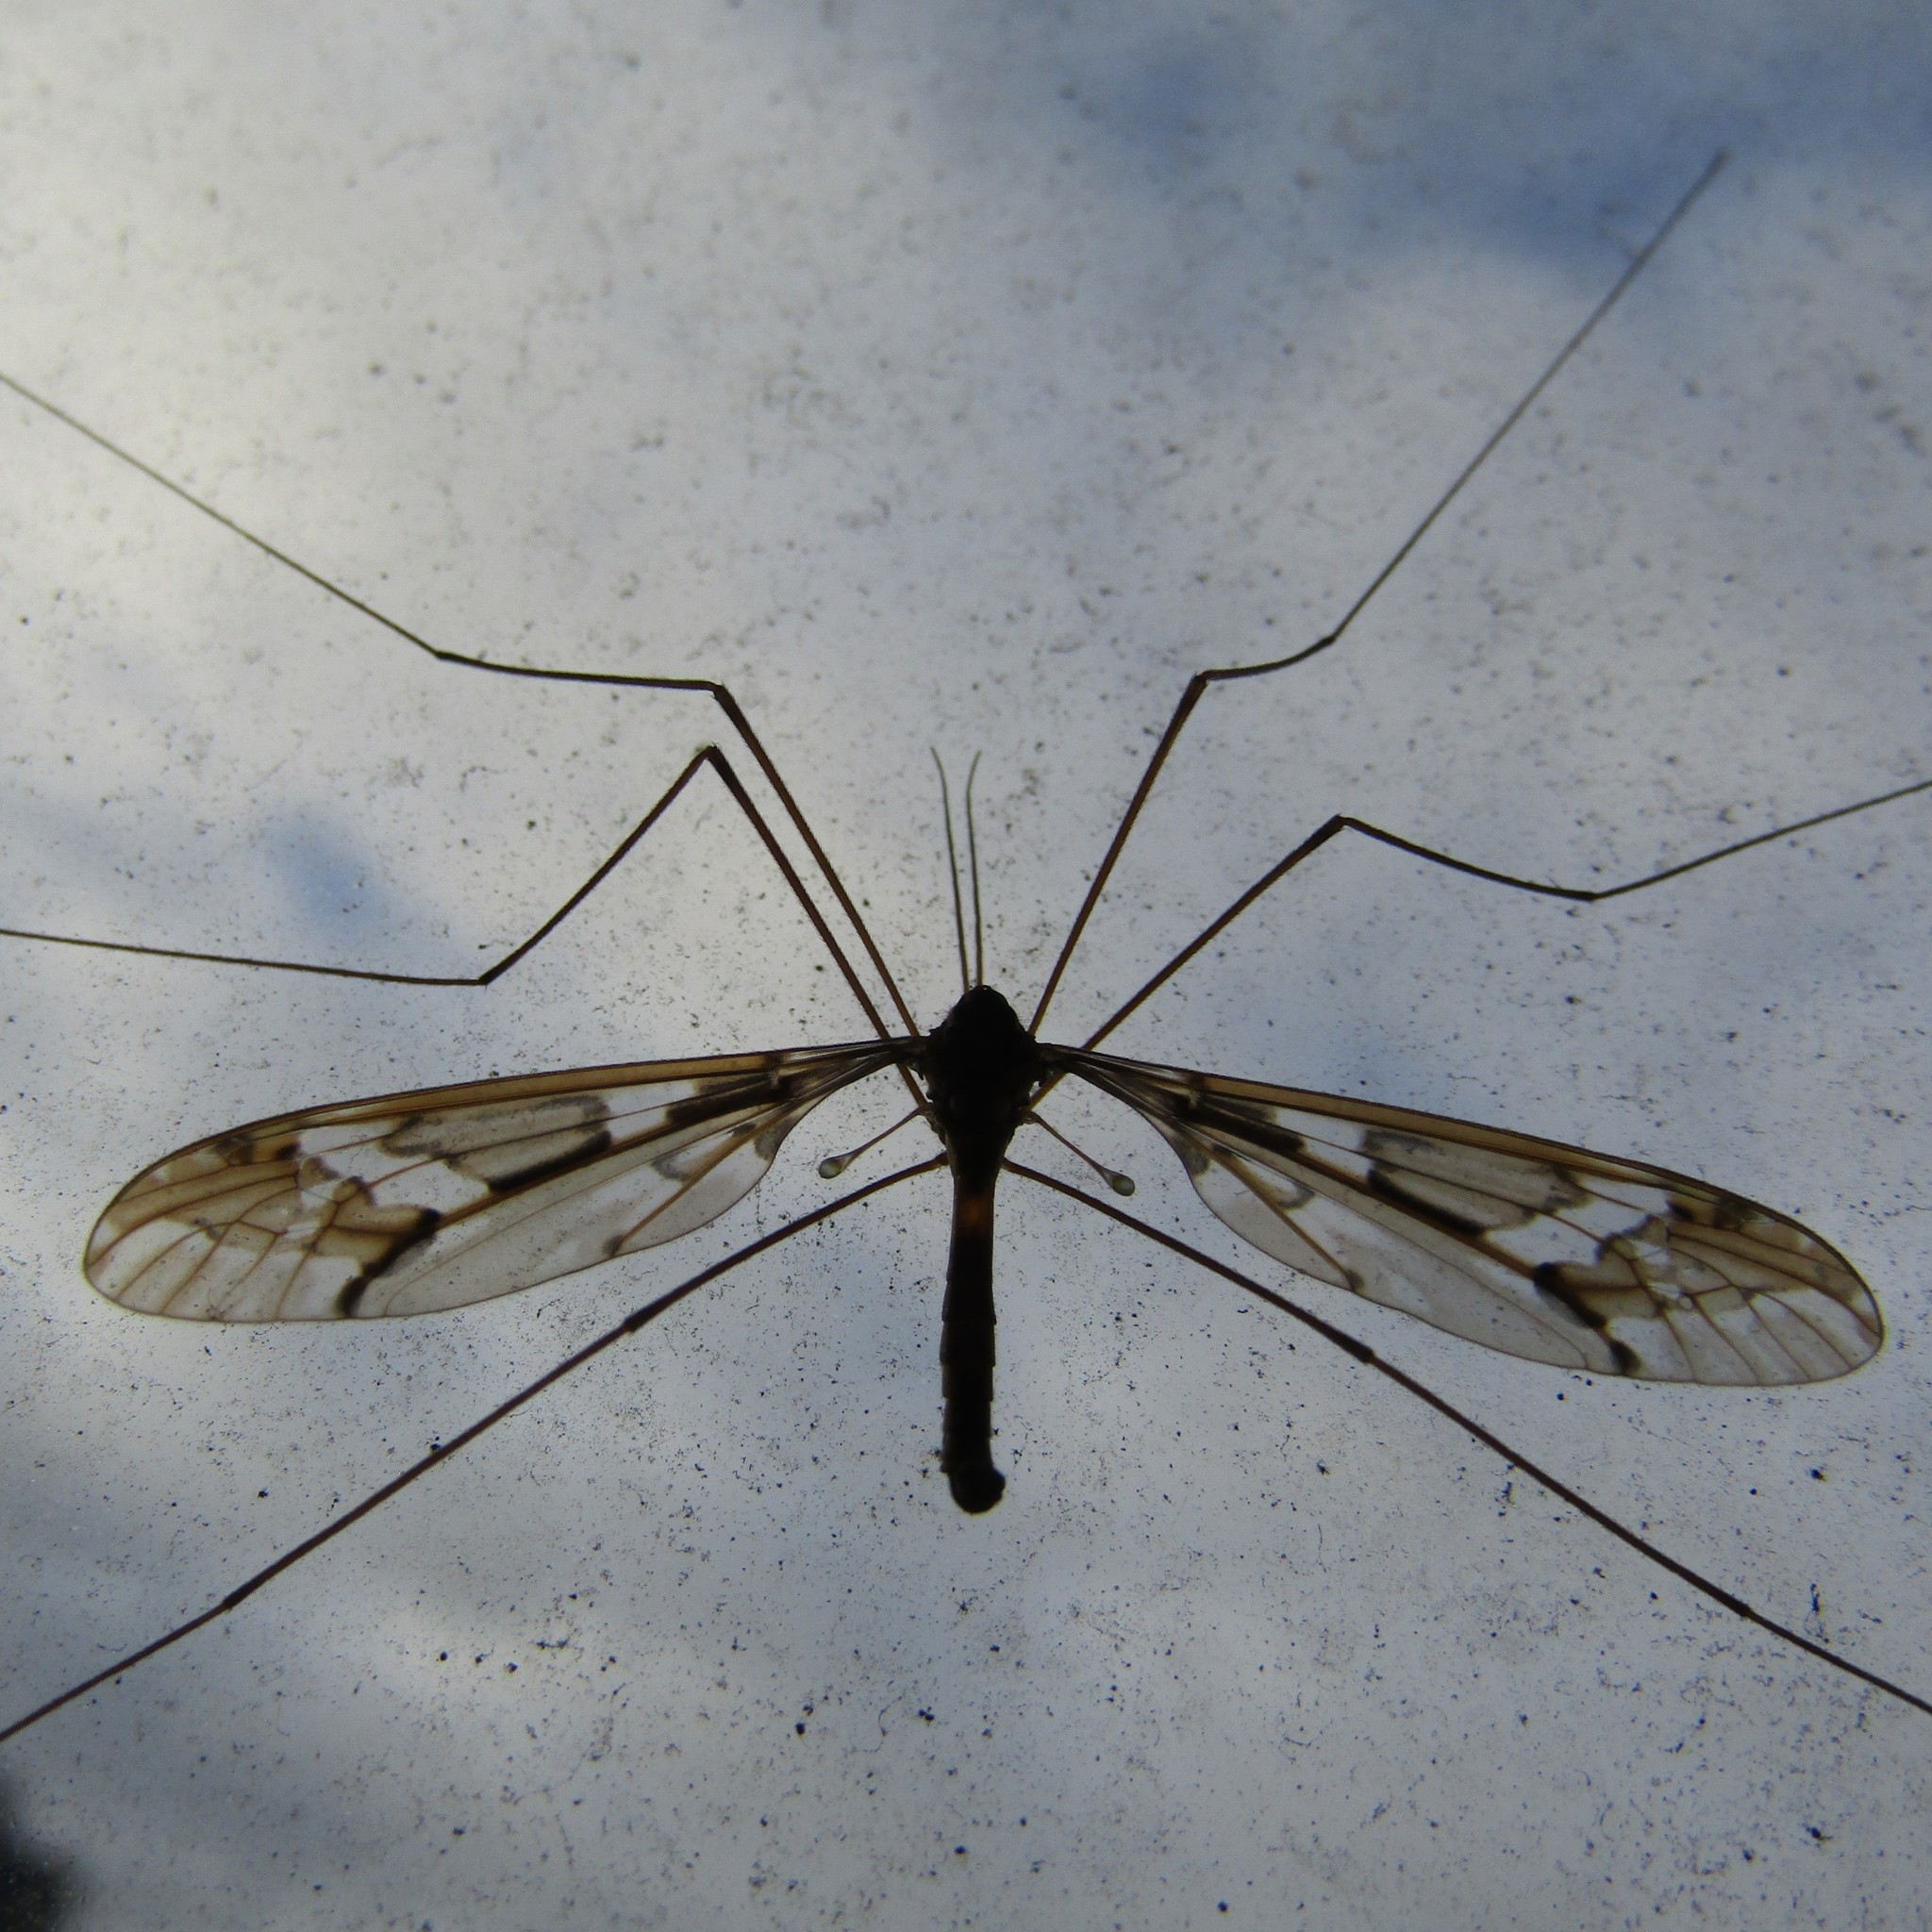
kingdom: Animalia
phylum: Arthropoda
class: Insecta
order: Diptera
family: Tipulidae
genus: Leptotarsus
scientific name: Leptotarsus binotatus
